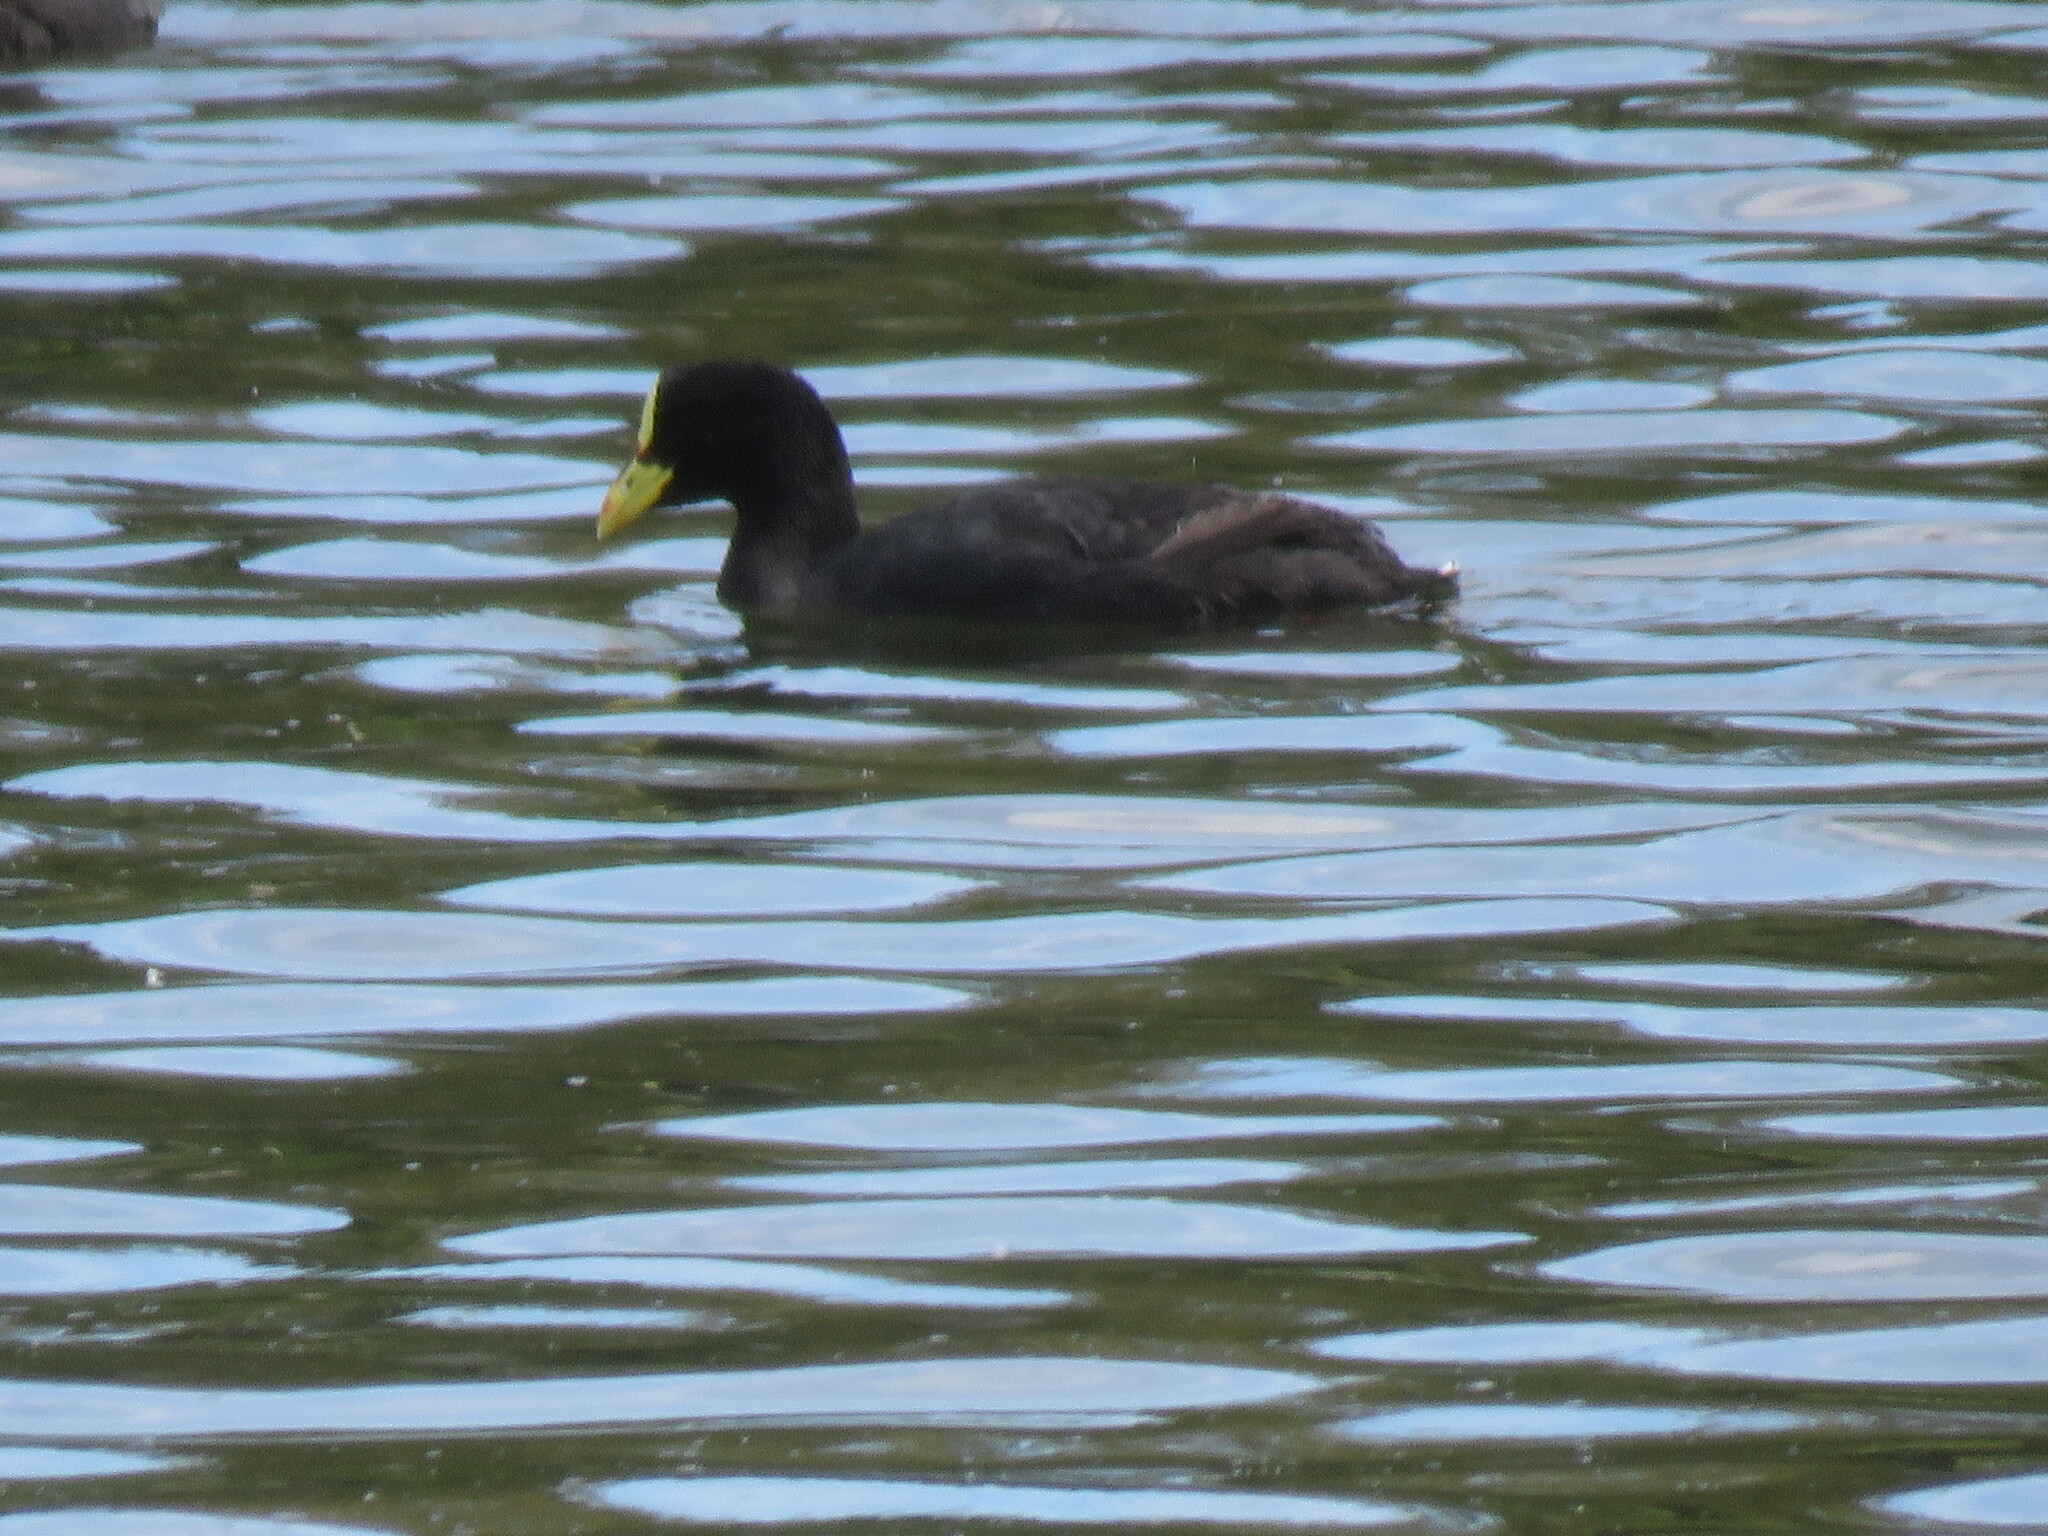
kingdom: Animalia
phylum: Chordata
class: Aves
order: Gruiformes
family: Rallidae
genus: Fulica
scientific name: Fulica armillata
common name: Red-gartered coot
